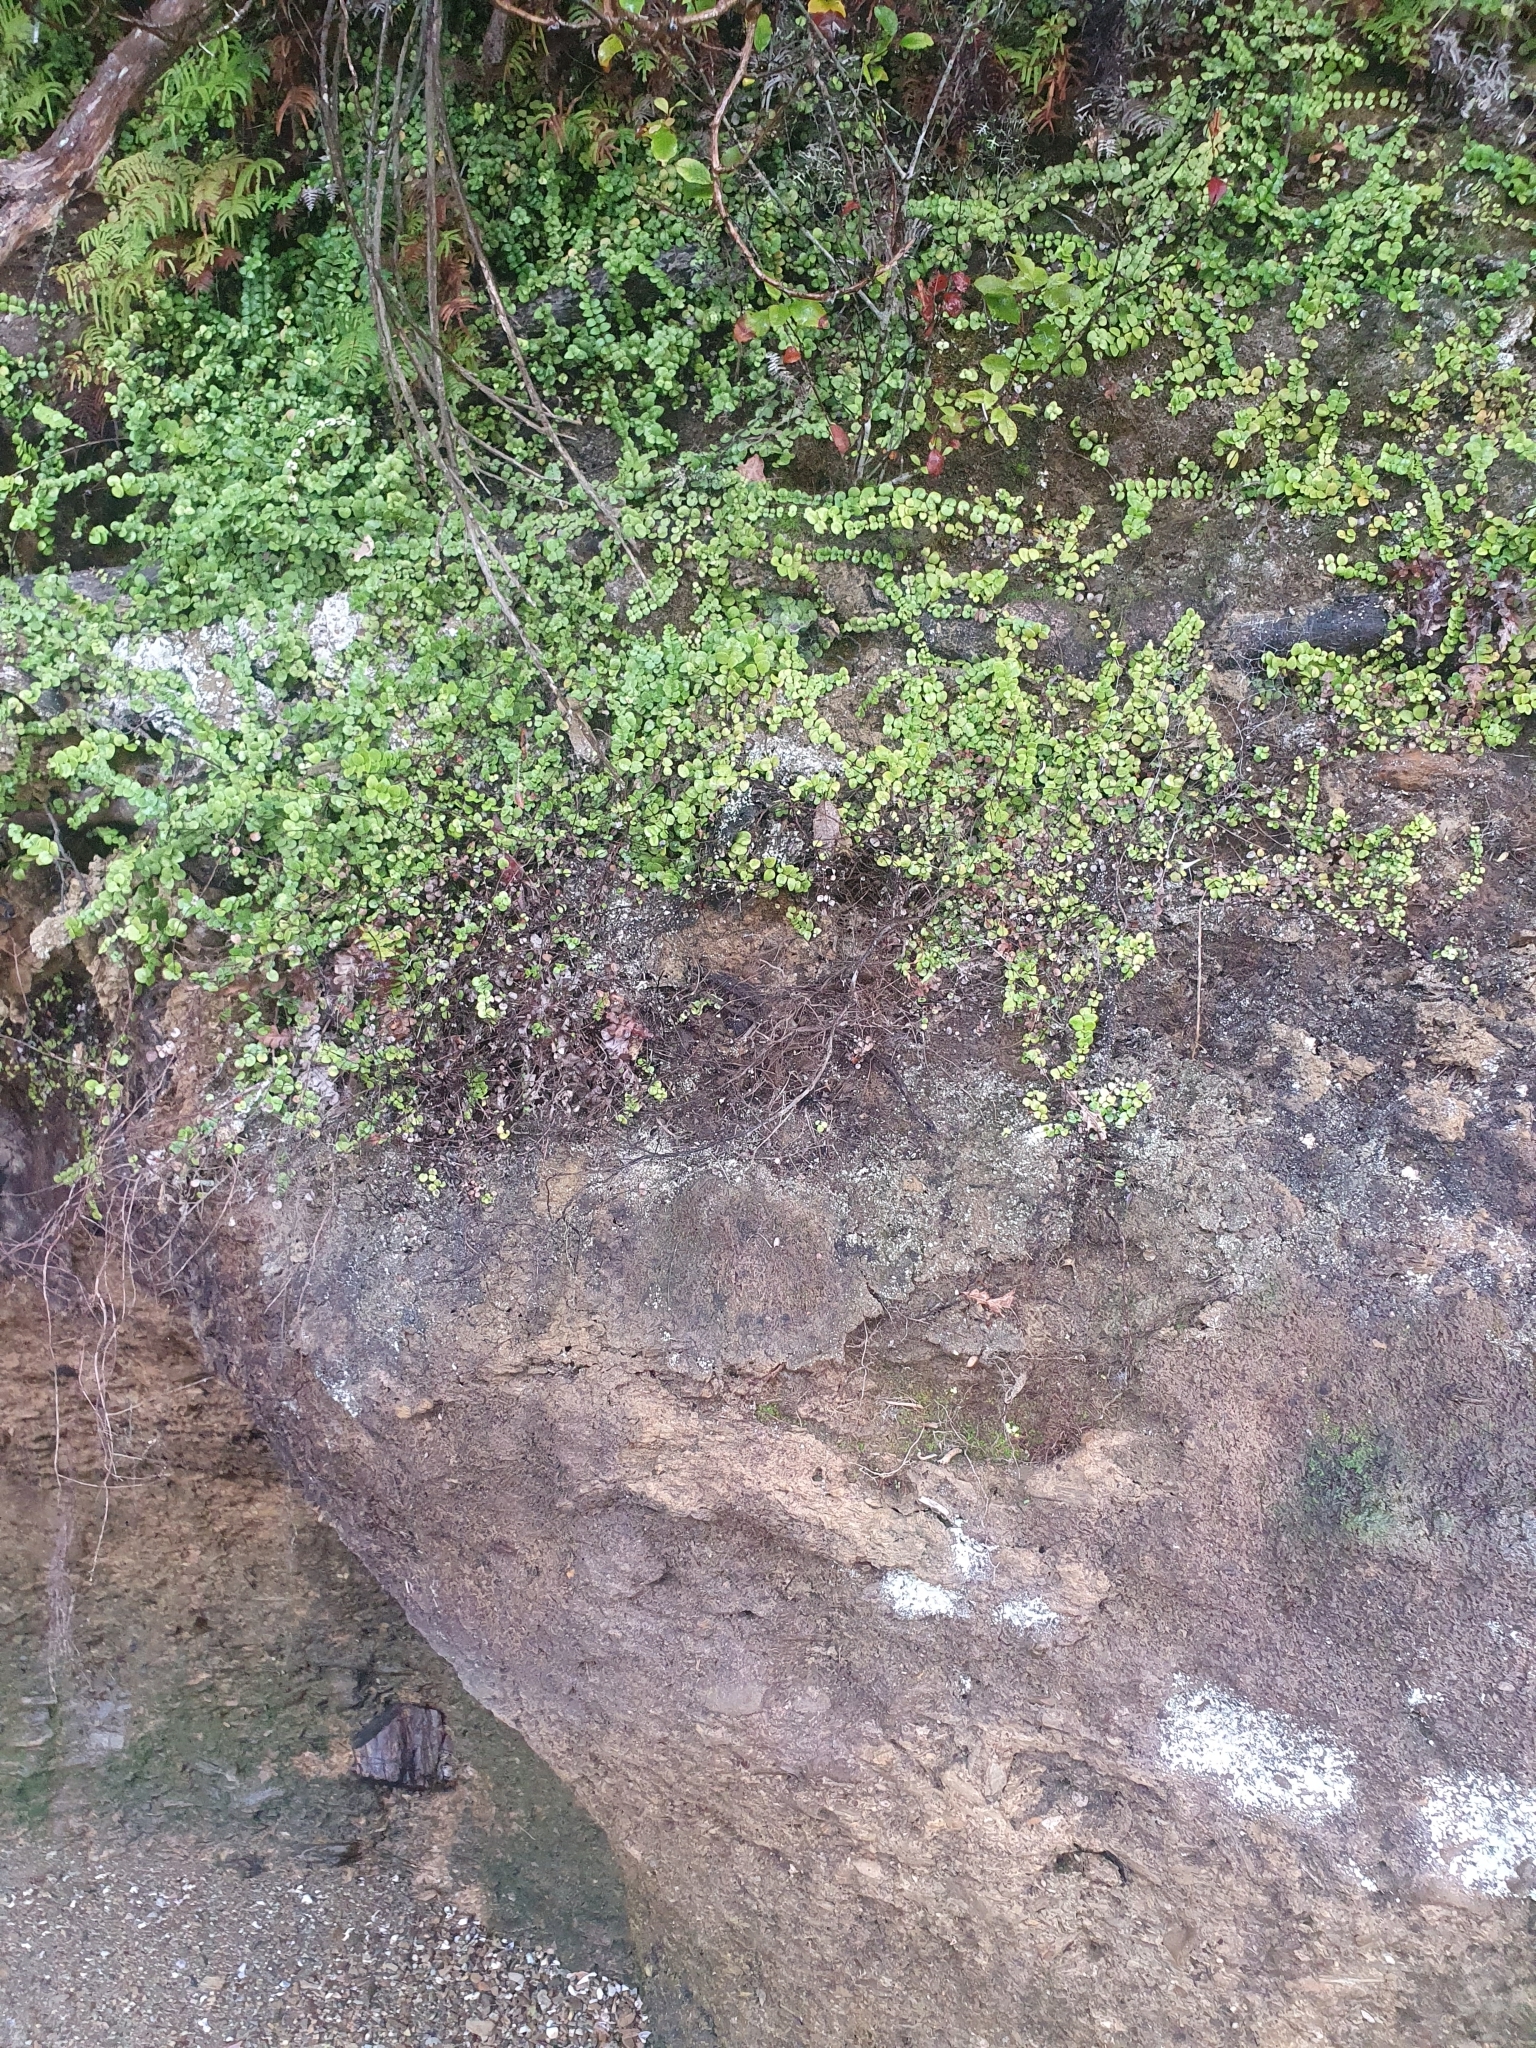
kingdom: Plantae
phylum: Tracheophyta
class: Magnoliopsida
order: Myrtales
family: Myrtaceae
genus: Metrosideros
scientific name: Metrosideros perforata
